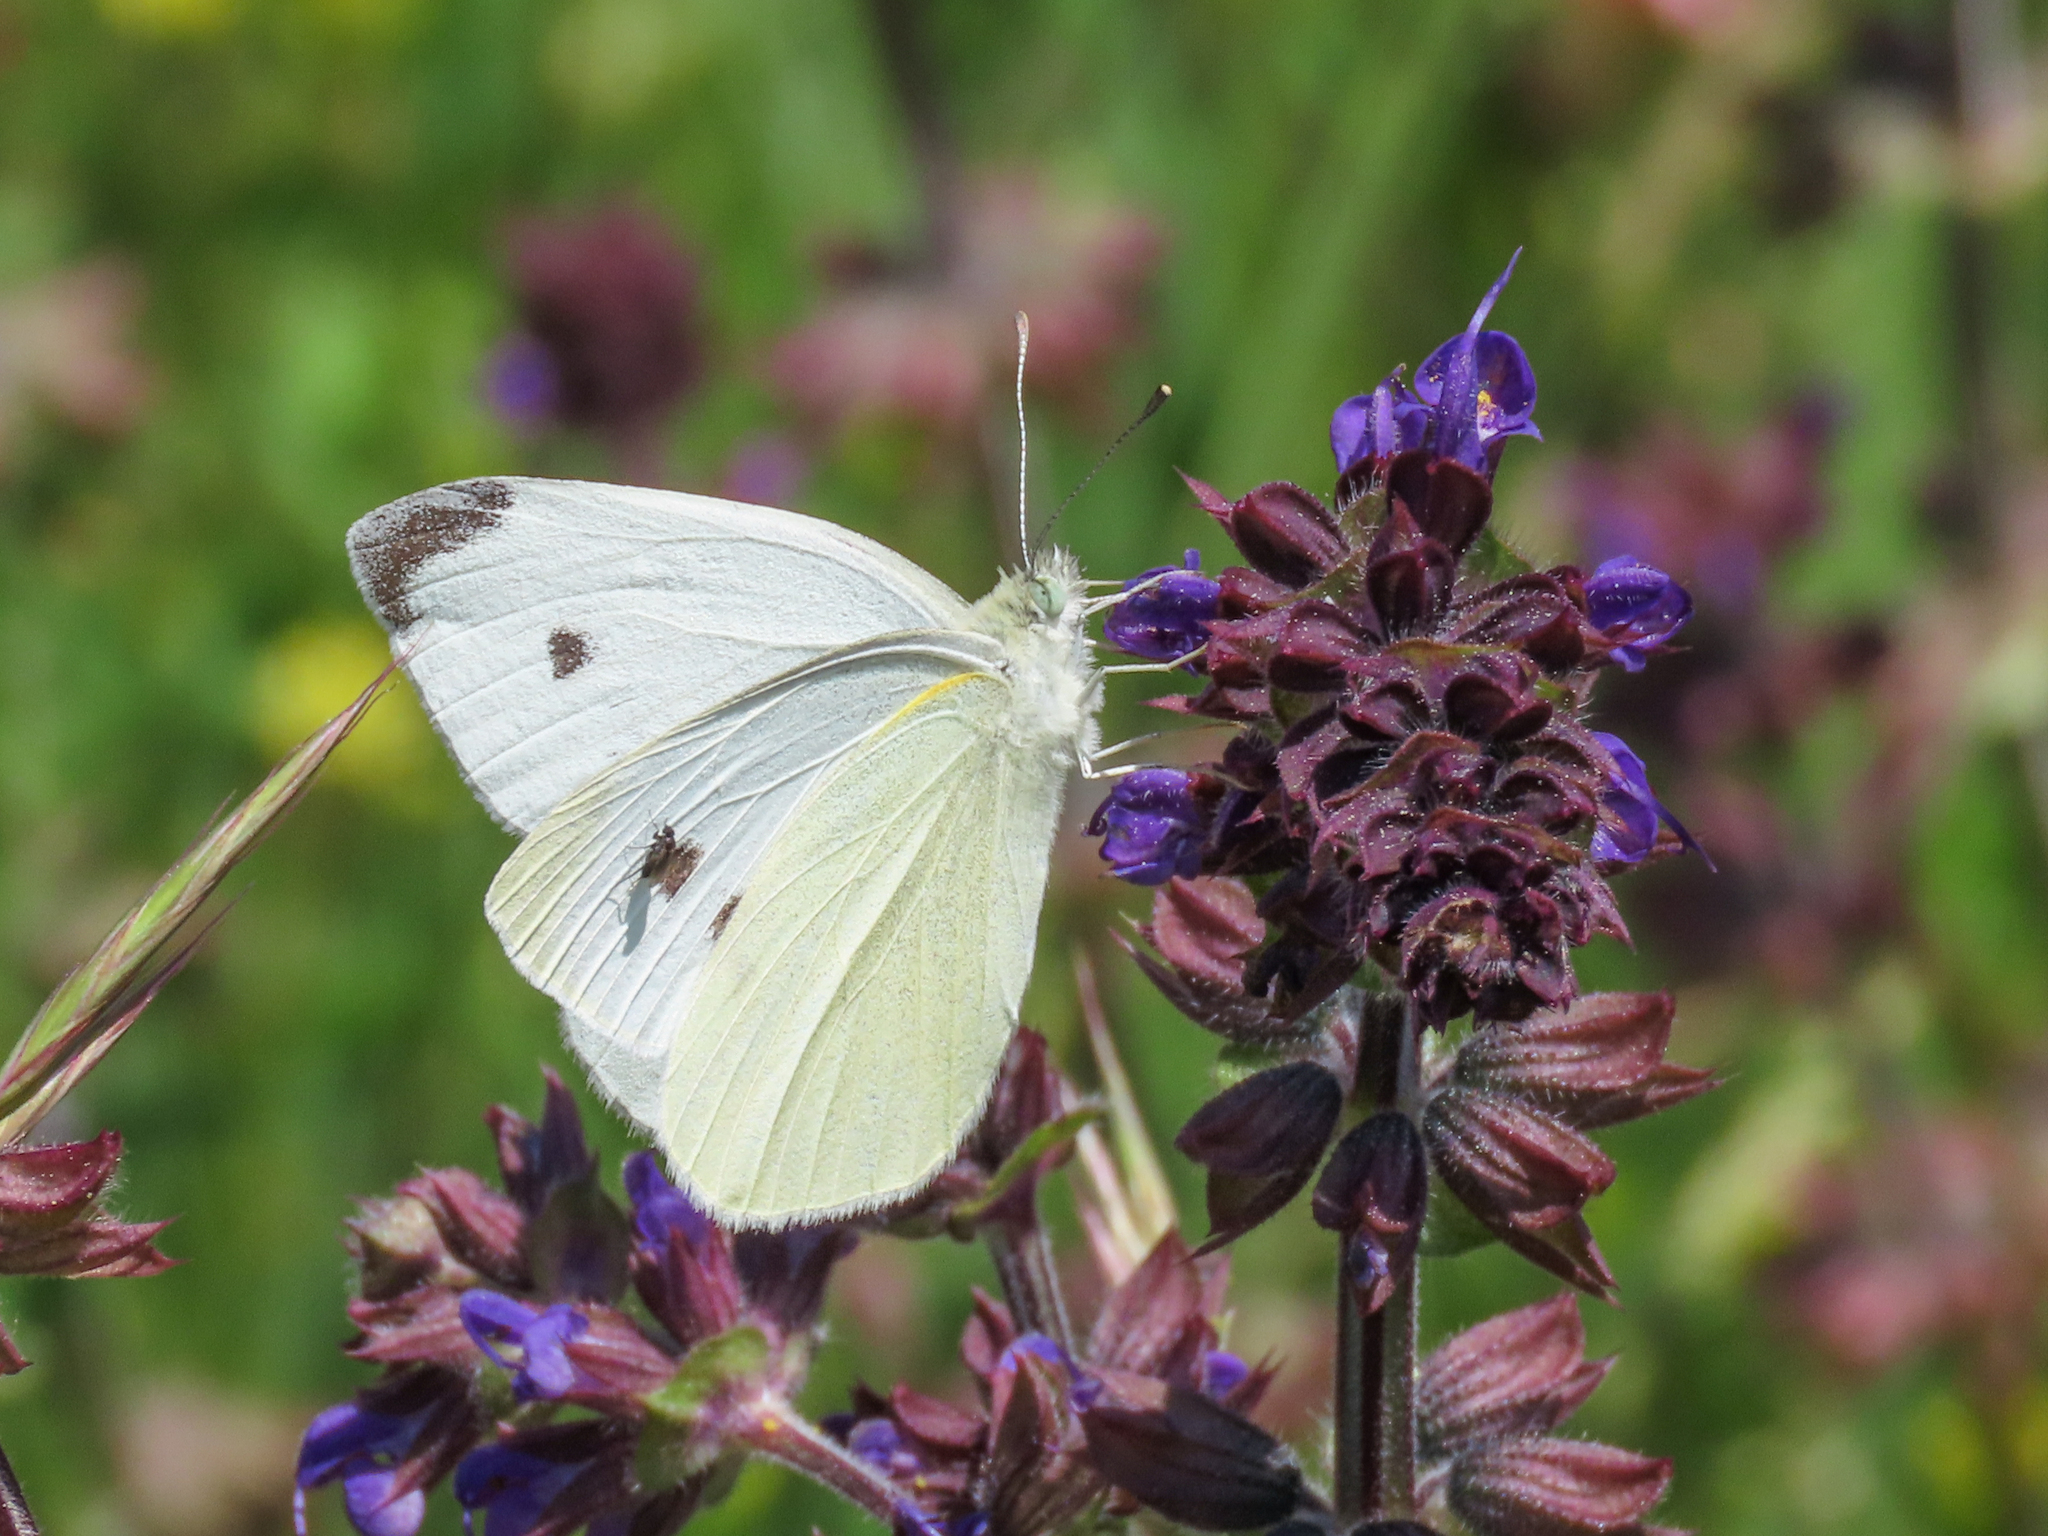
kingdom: Animalia
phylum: Arthropoda
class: Insecta
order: Lepidoptera
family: Pieridae
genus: Pieris
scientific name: Pieris rapae
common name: Small white
